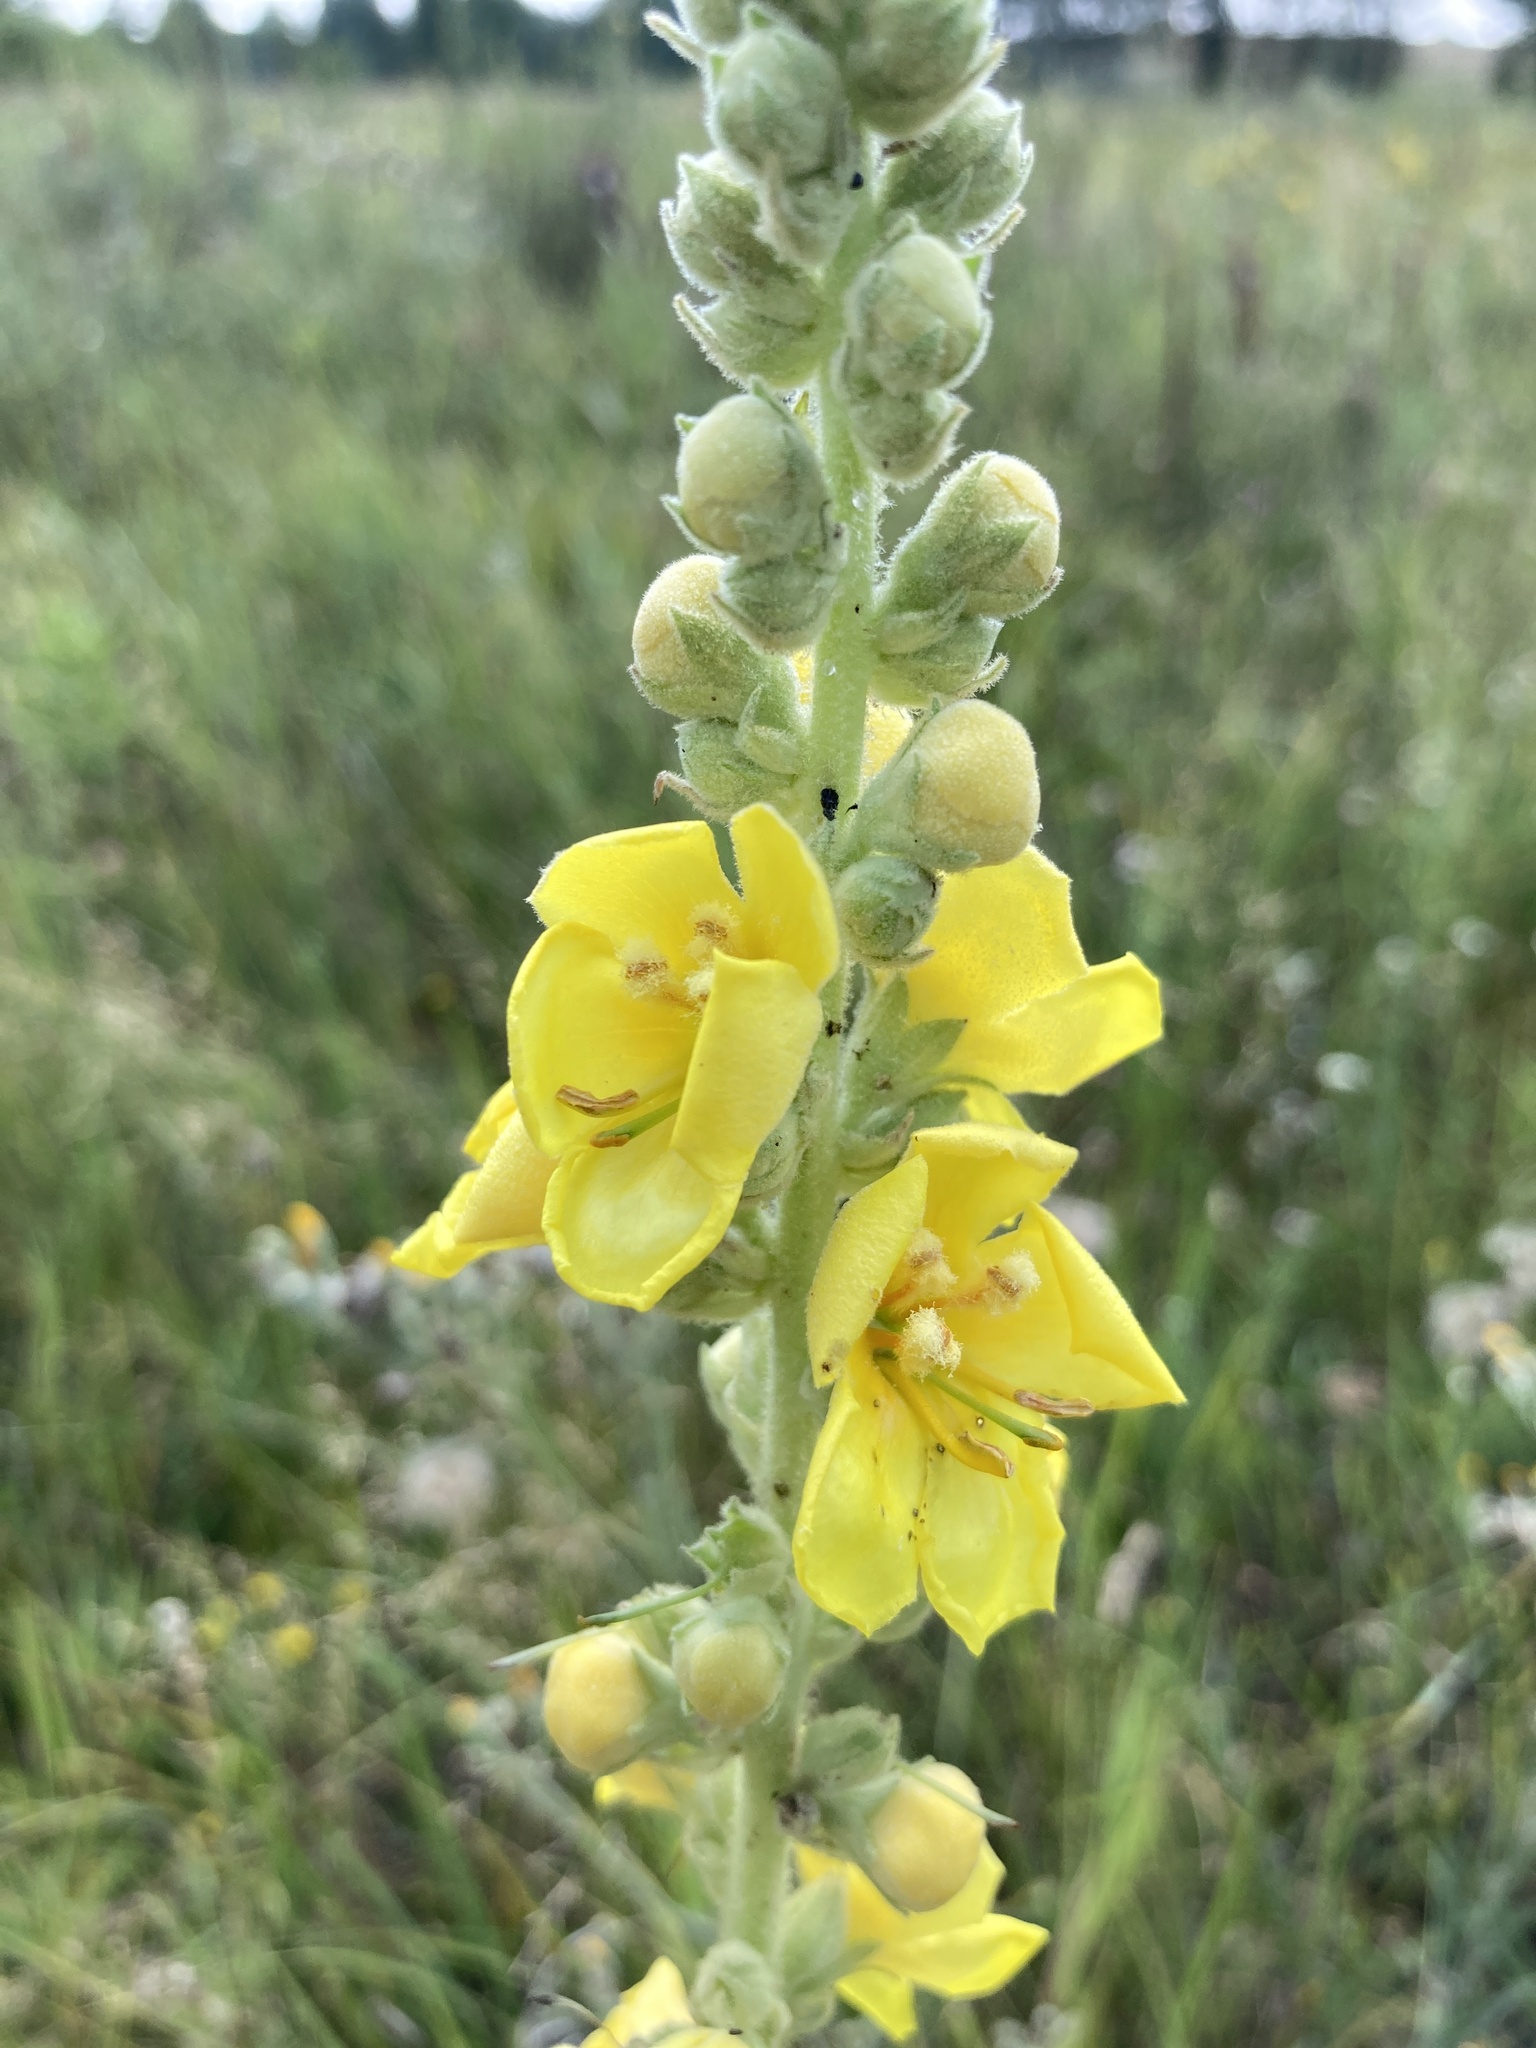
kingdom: Plantae
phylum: Tracheophyta
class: Magnoliopsida
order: Lamiales
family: Scrophulariaceae
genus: Verbascum
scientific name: Verbascum densiflorum
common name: Dense-flowered mullein
